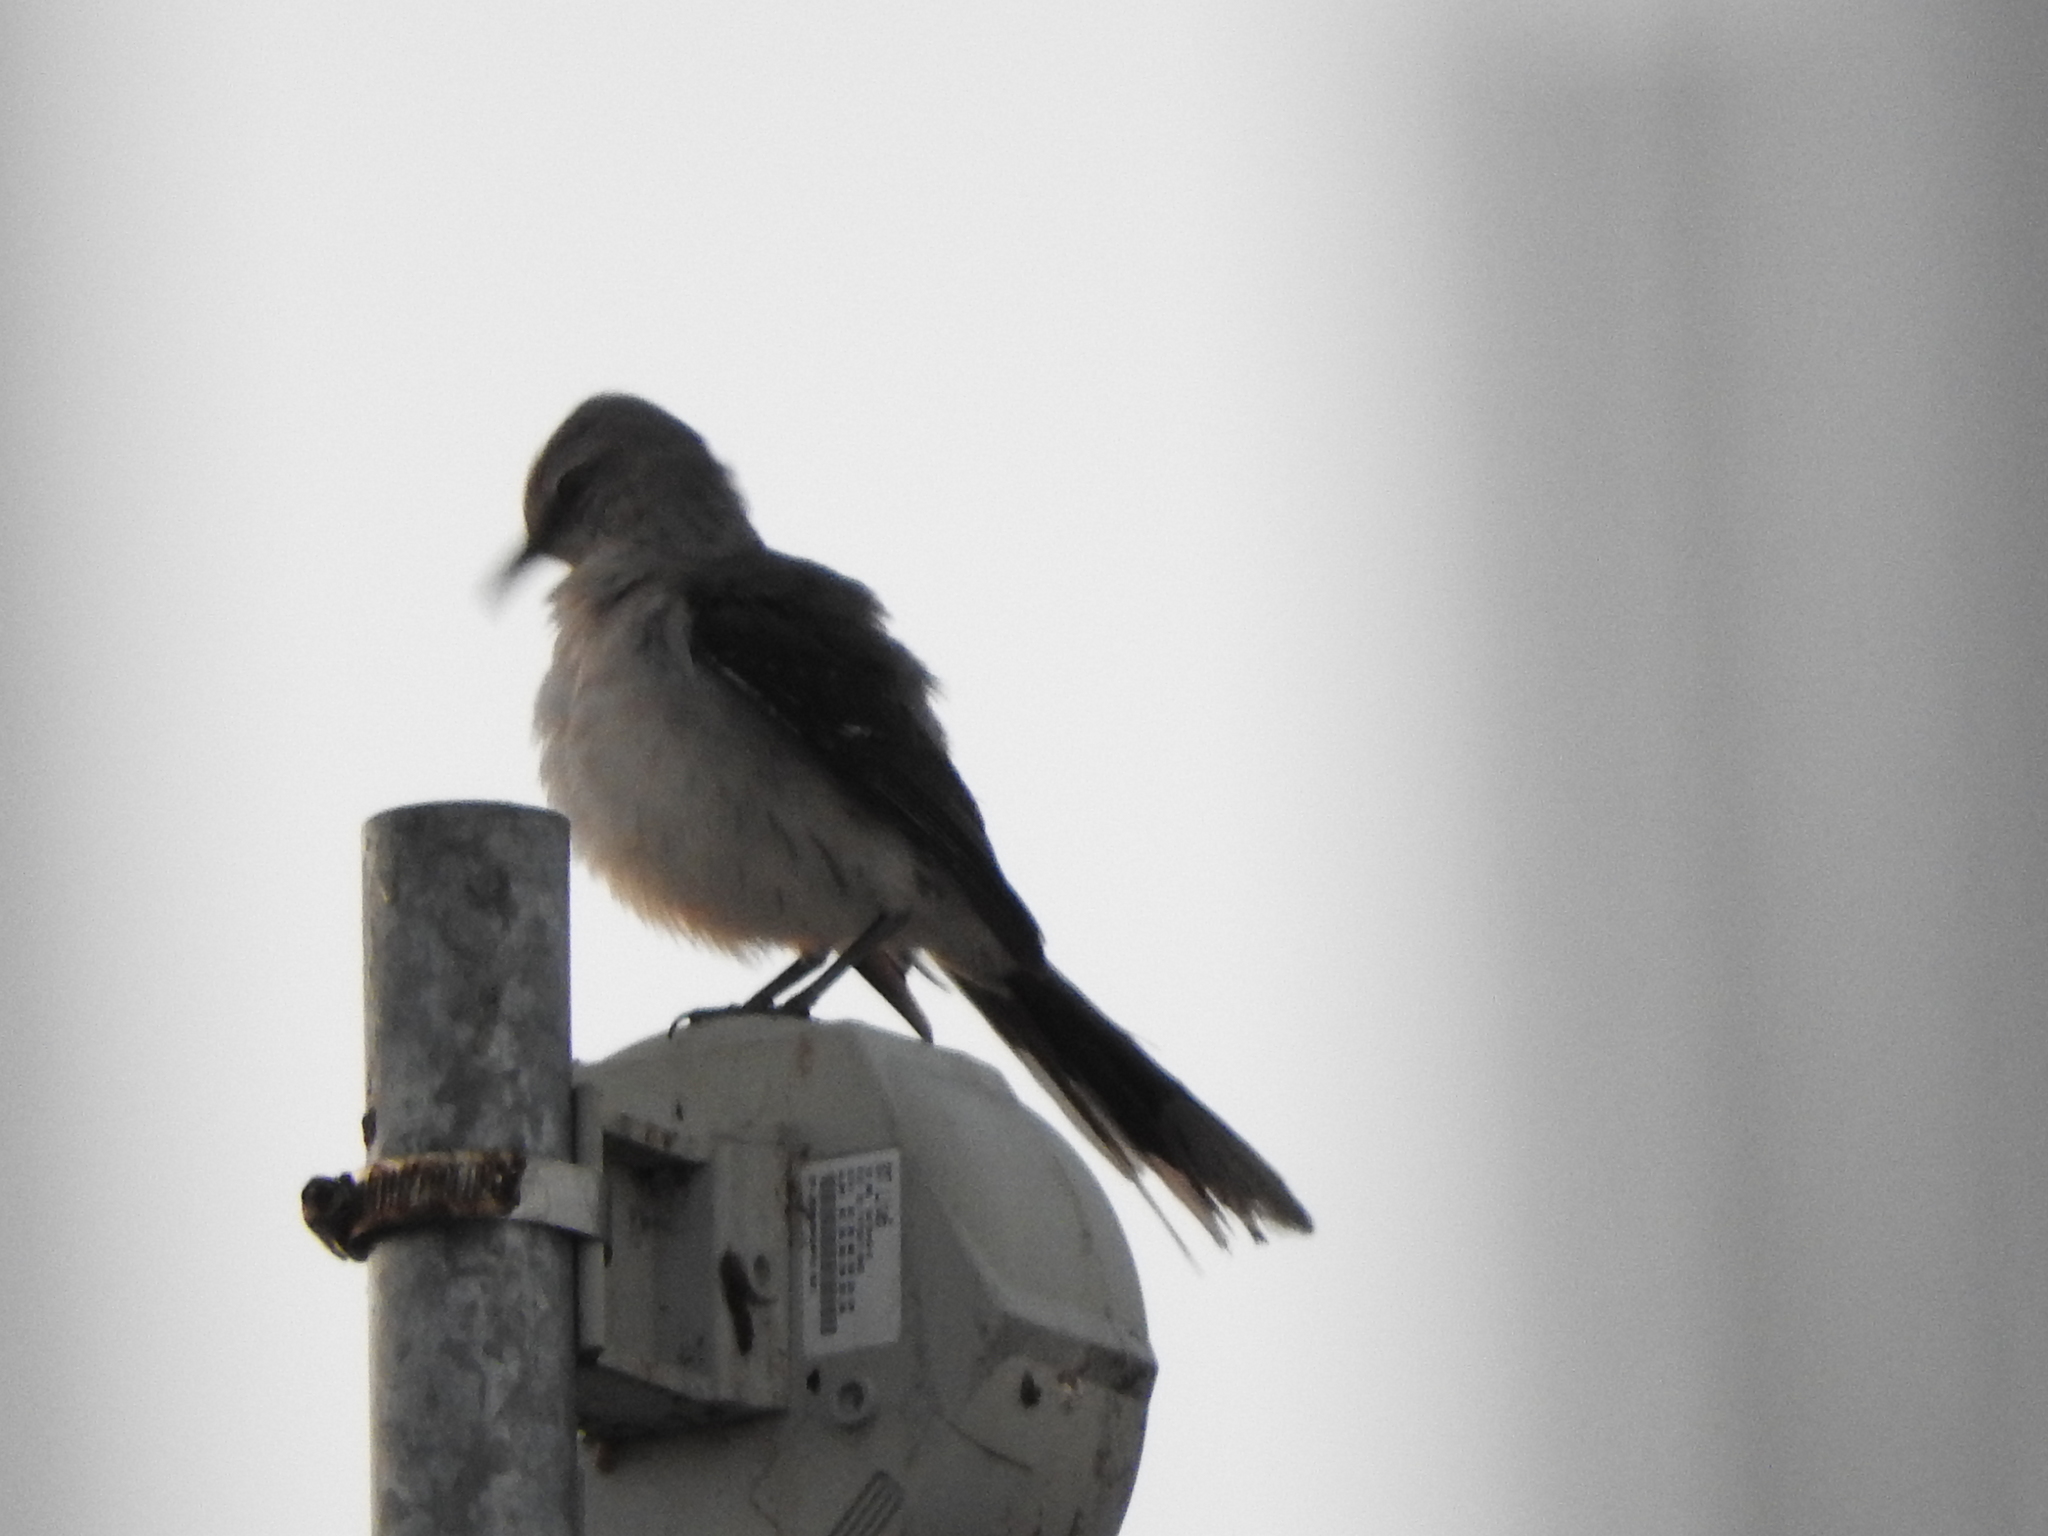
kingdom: Animalia
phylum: Chordata
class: Aves
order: Passeriformes
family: Mimidae
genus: Mimus
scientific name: Mimus gilvus
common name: Tropical mockingbird
